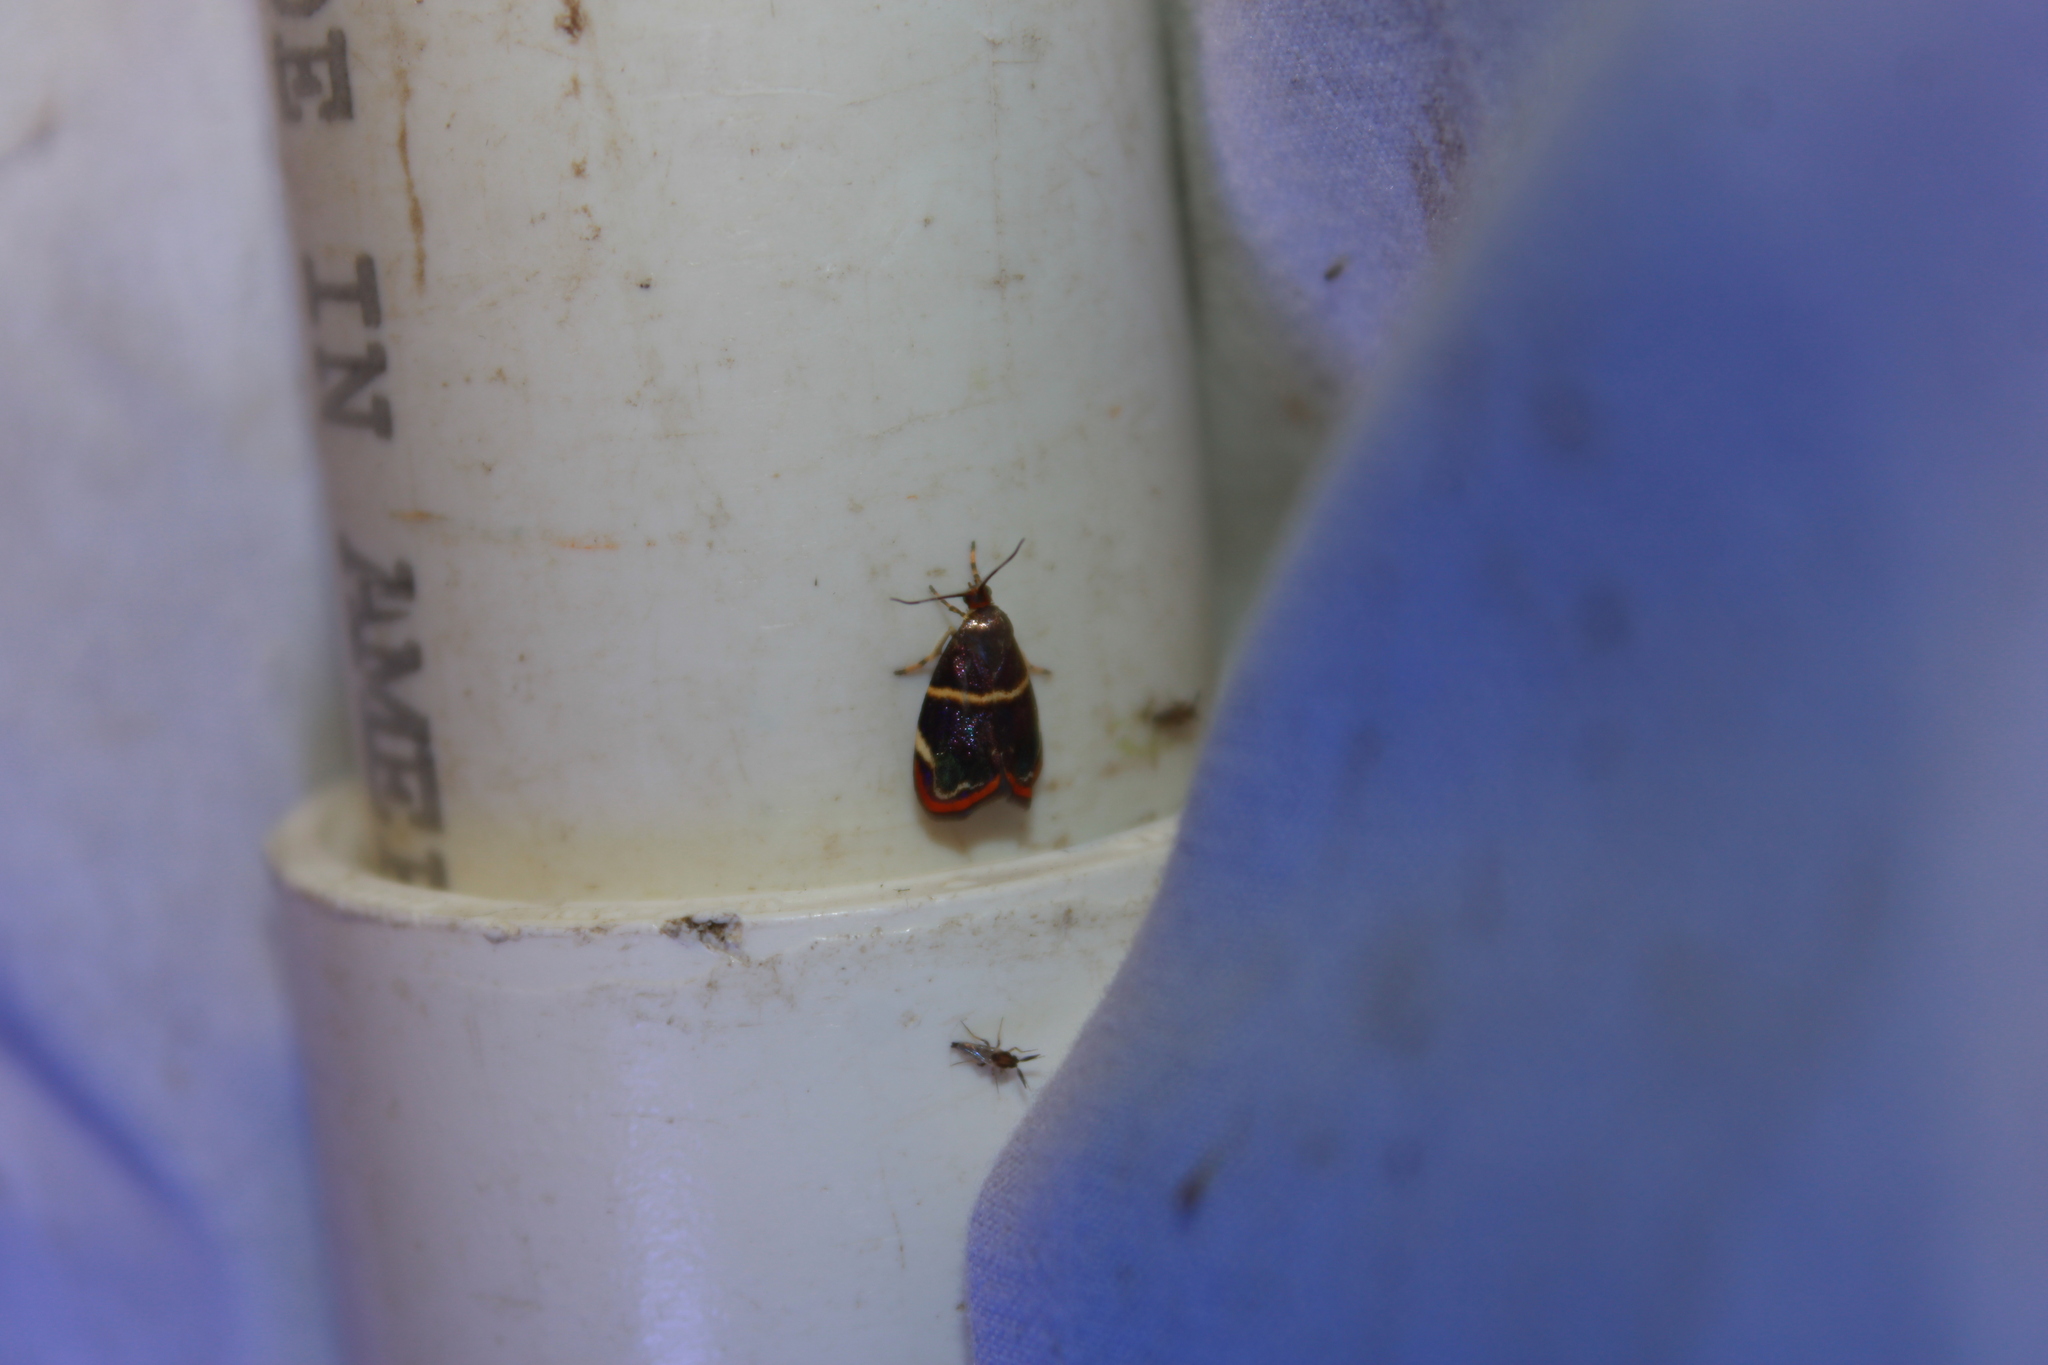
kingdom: Animalia
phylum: Arthropoda
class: Insecta
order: Lepidoptera
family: Choreutidae
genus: Hemerophila
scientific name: Hemerophila
